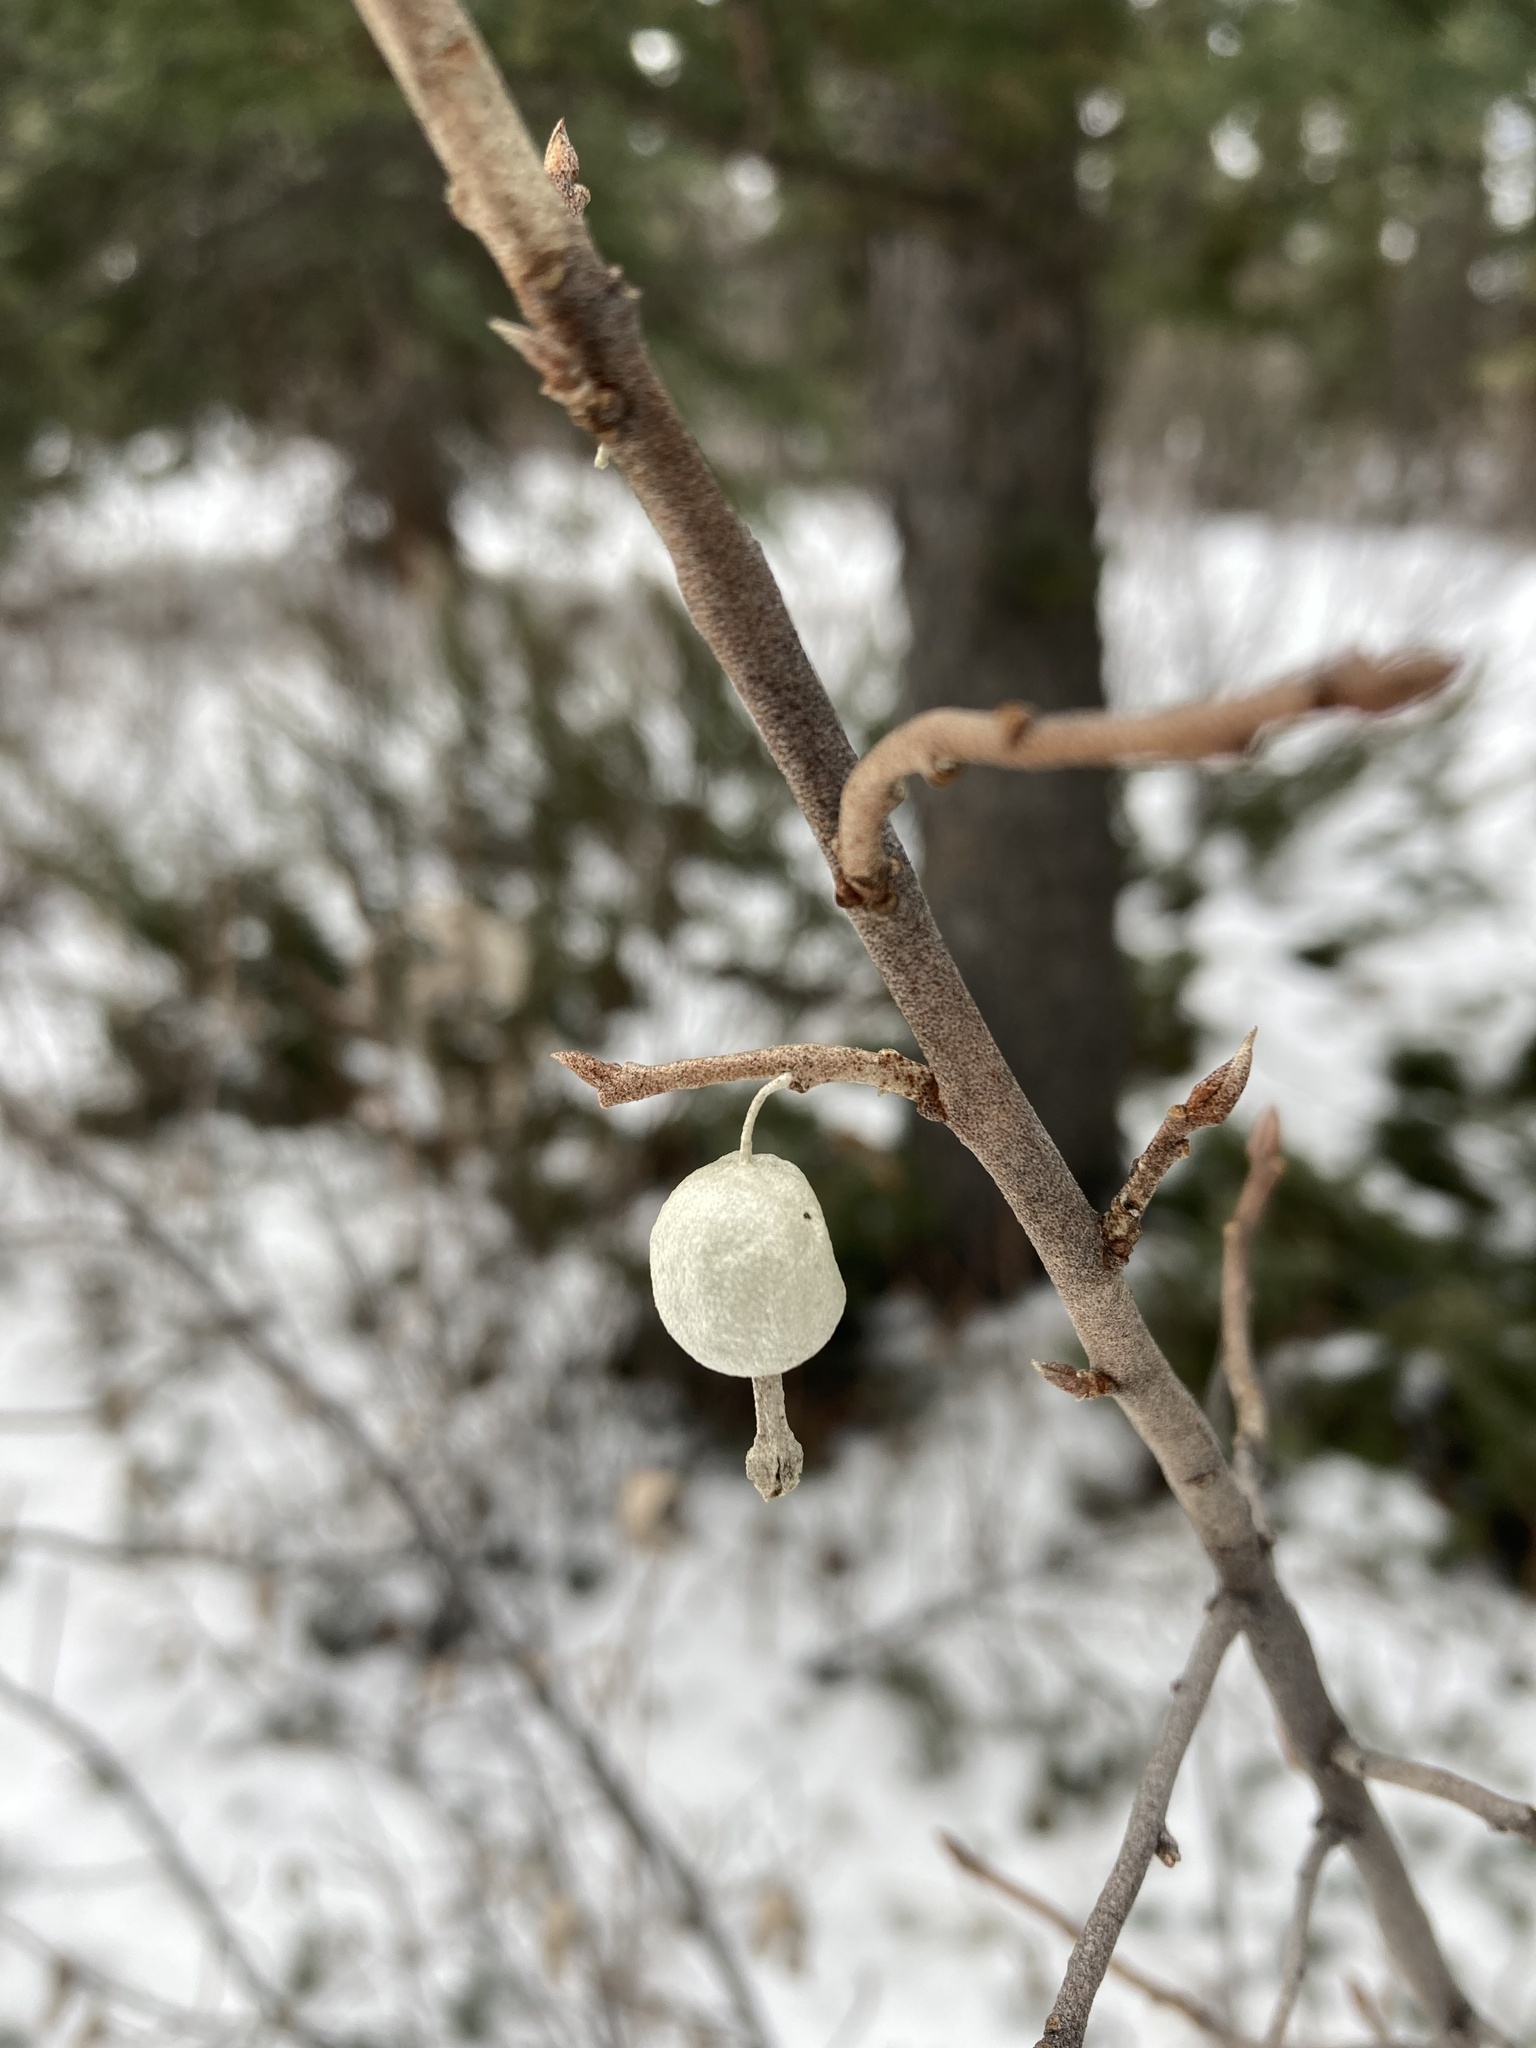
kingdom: Plantae
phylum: Tracheophyta
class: Magnoliopsida
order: Rosales
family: Elaeagnaceae
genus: Elaeagnus
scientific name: Elaeagnus commutata
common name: Silverberry
